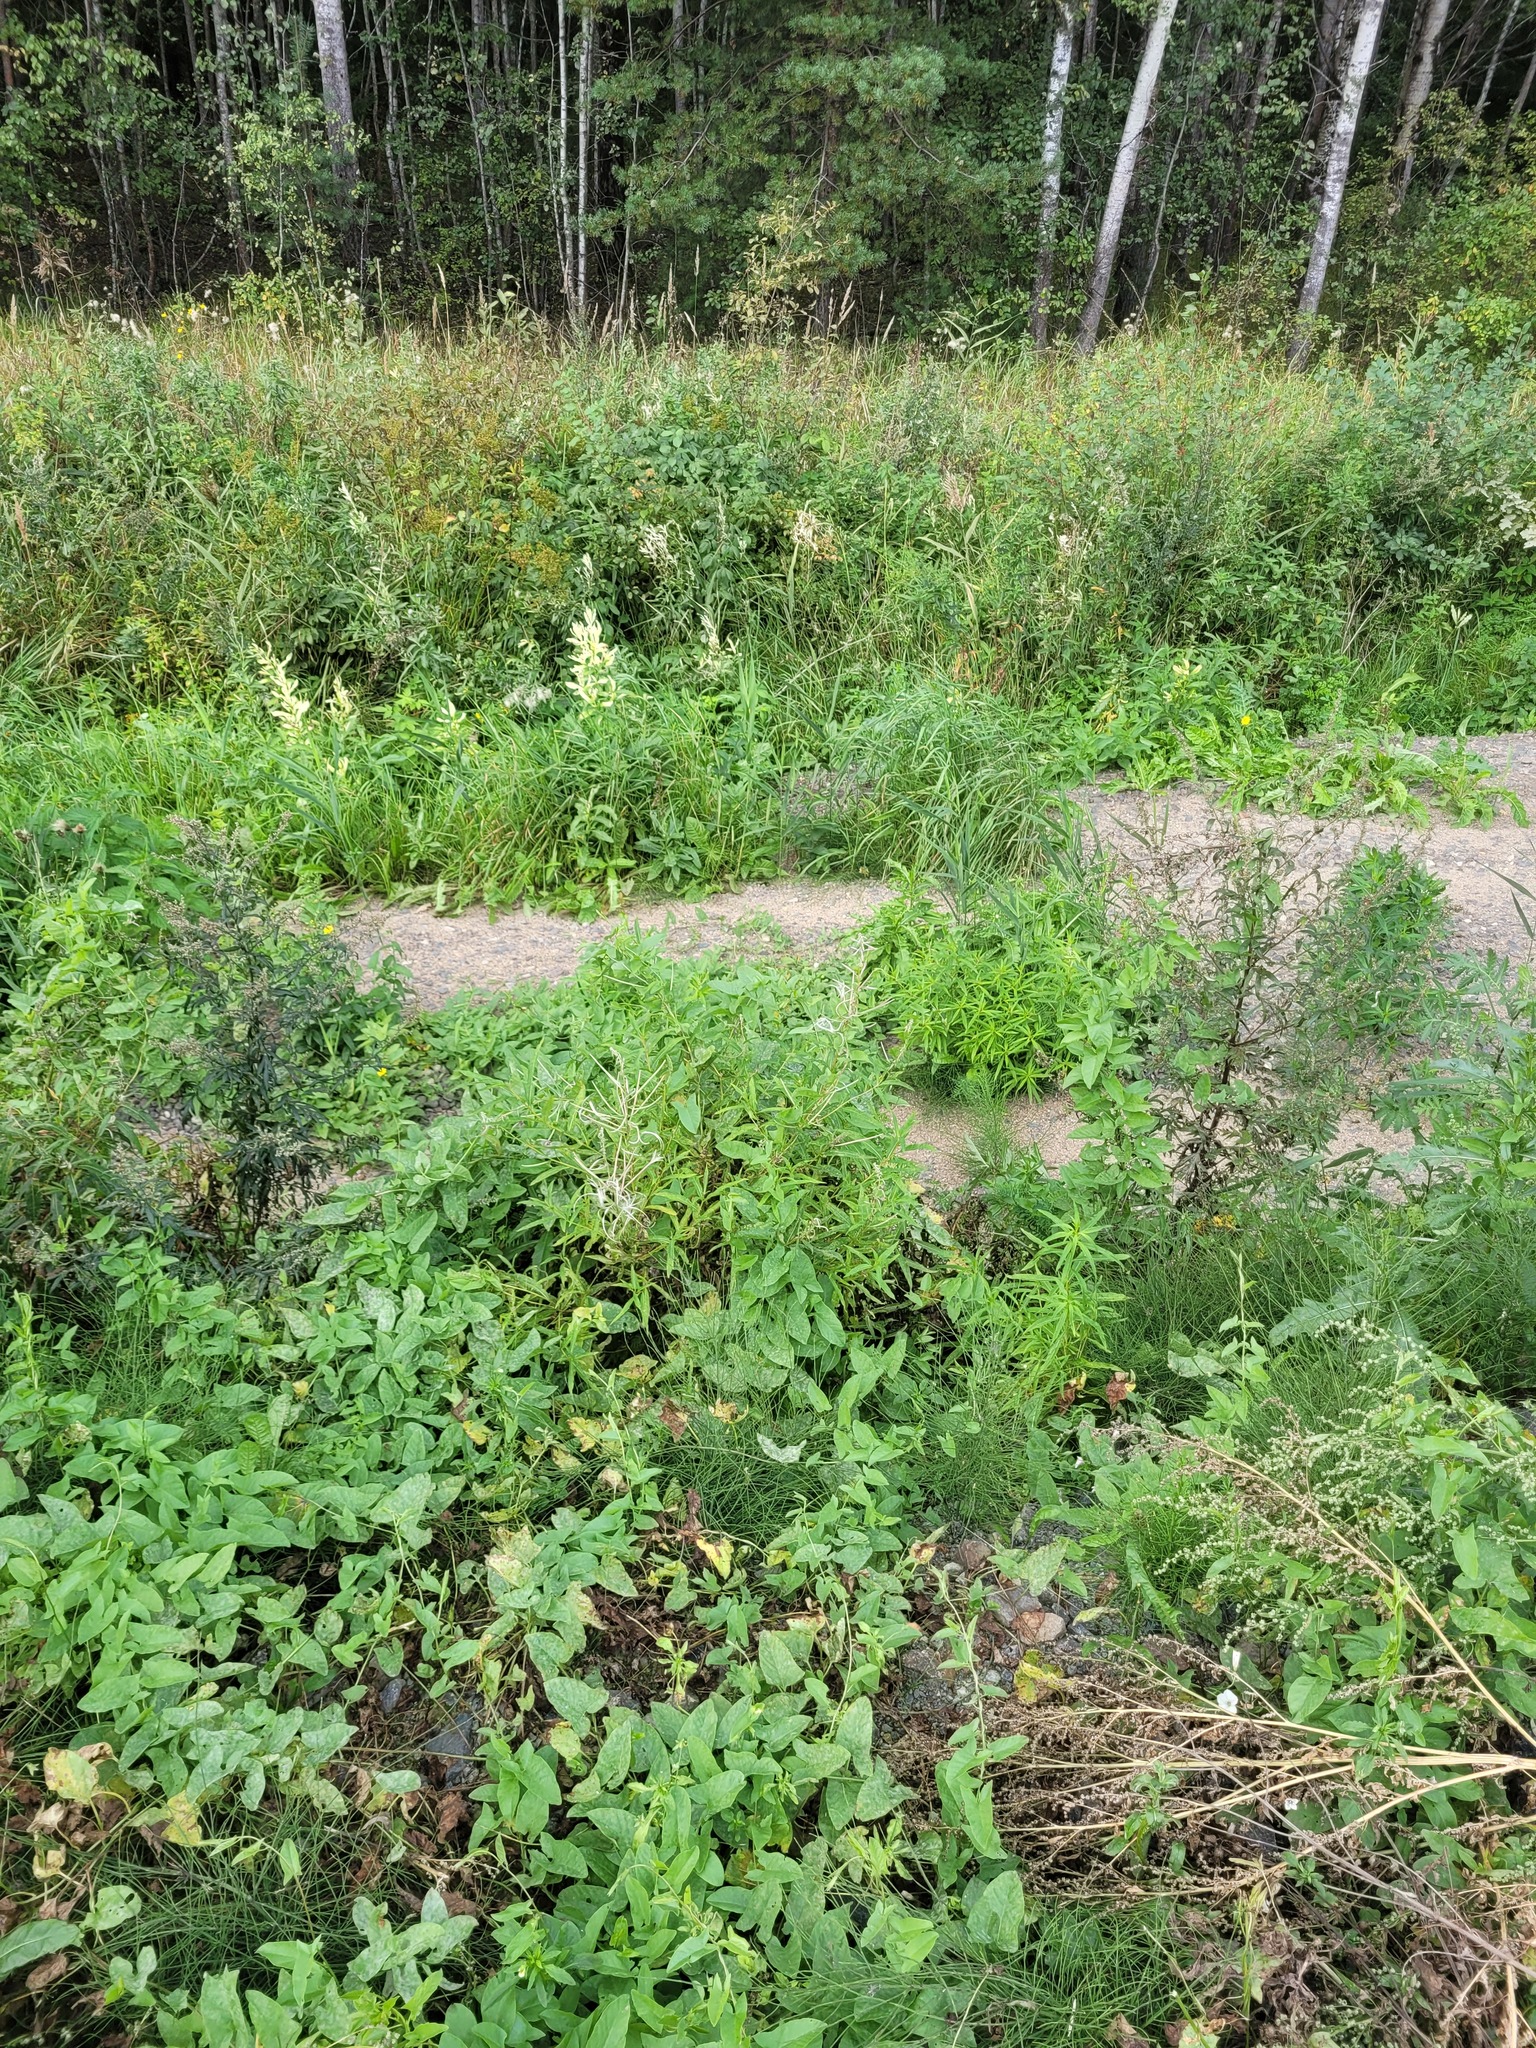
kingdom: Plantae
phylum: Tracheophyta
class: Magnoliopsida
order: Myrtales
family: Onagraceae
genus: Chamaenerion
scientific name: Chamaenerion angustifolium
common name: Fireweed
